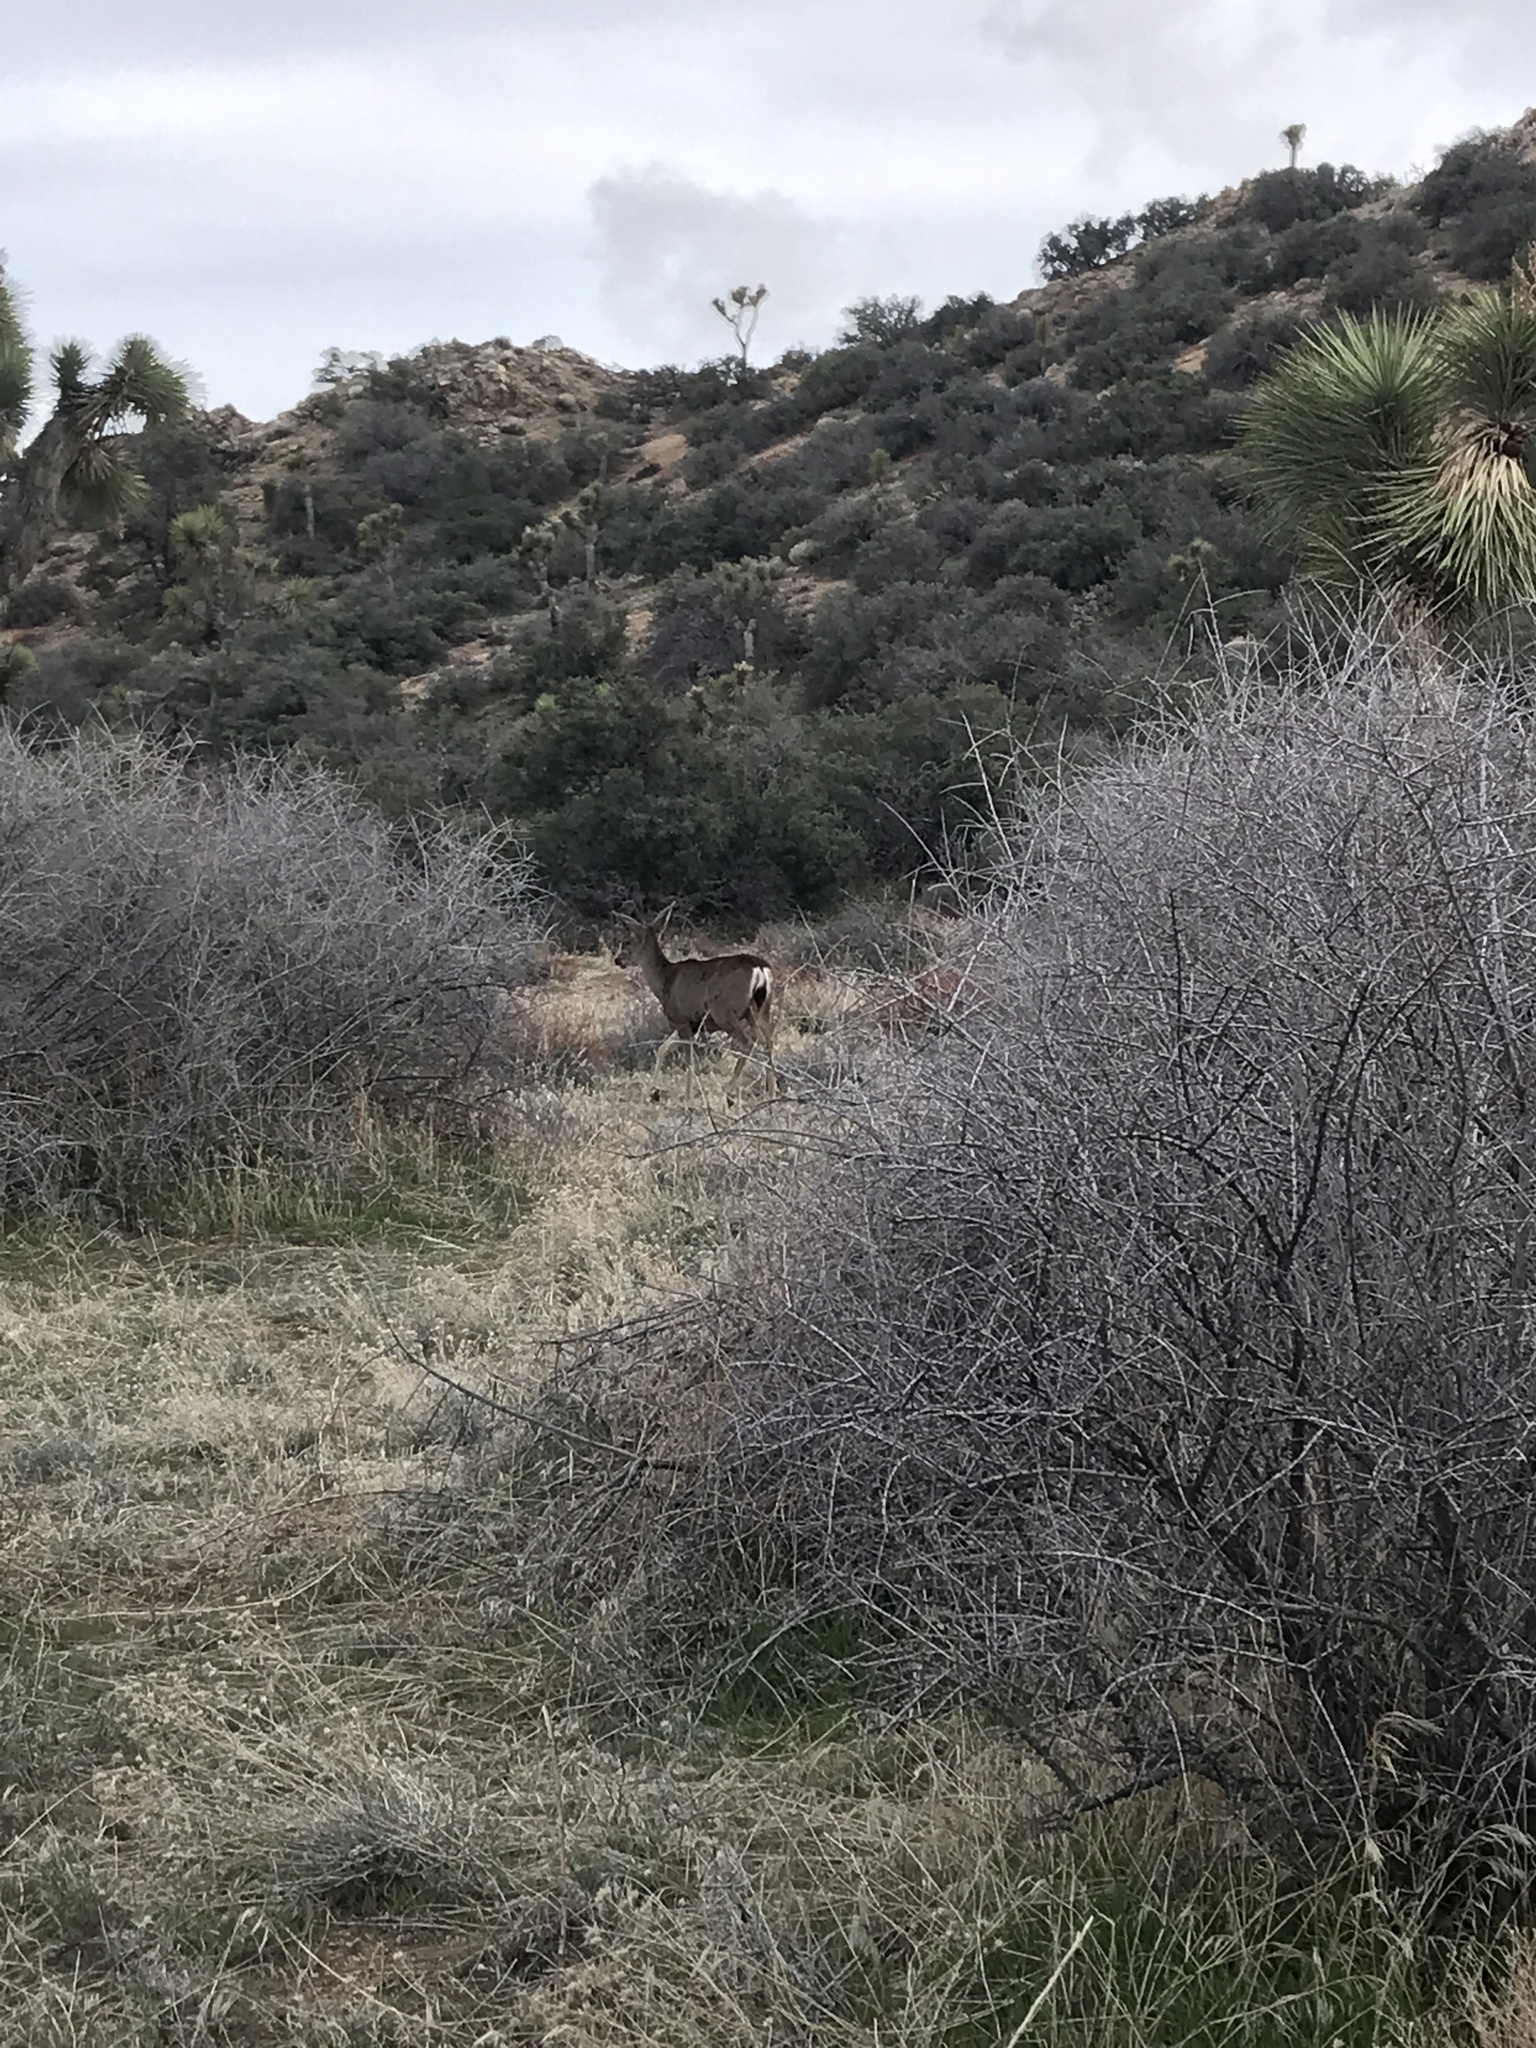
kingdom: Animalia
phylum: Chordata
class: Mammalia
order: Artiodactyla
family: Cervidae
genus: Odocoileus
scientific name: Odocoileus hemionus
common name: Mule deer
